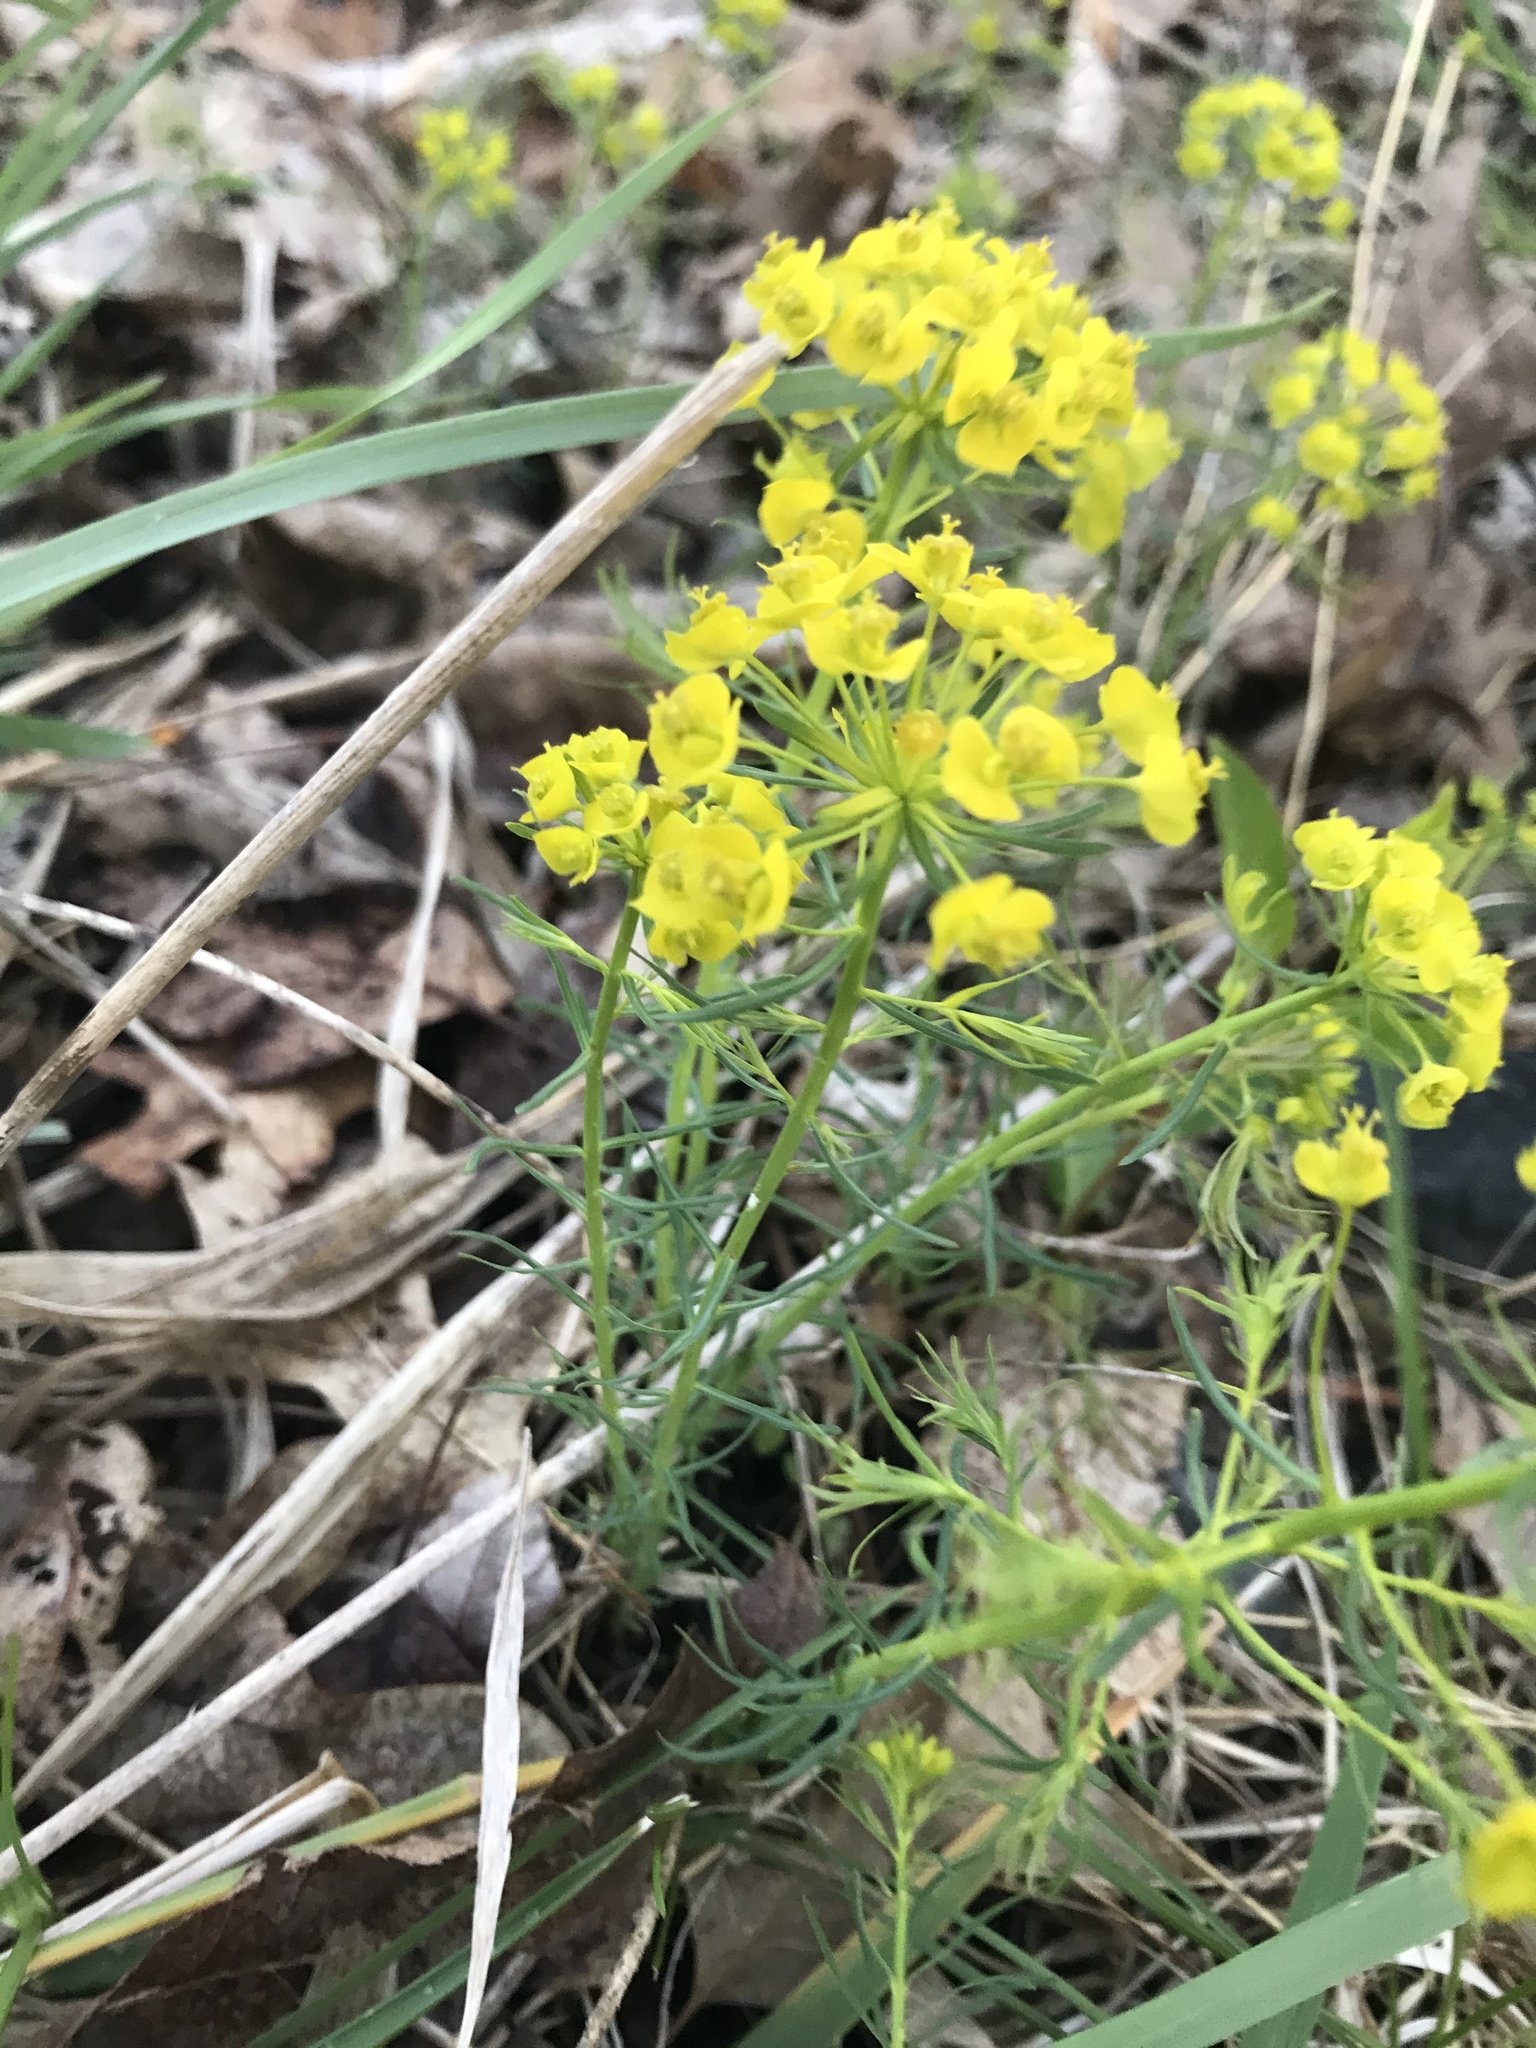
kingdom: Plantae
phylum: Tracheophyta
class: Magnoliopsida
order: Malpighiales
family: Euphorbiaceae
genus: Euphorbia
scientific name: Euphorbia cyparissias
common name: Cypress spurge
